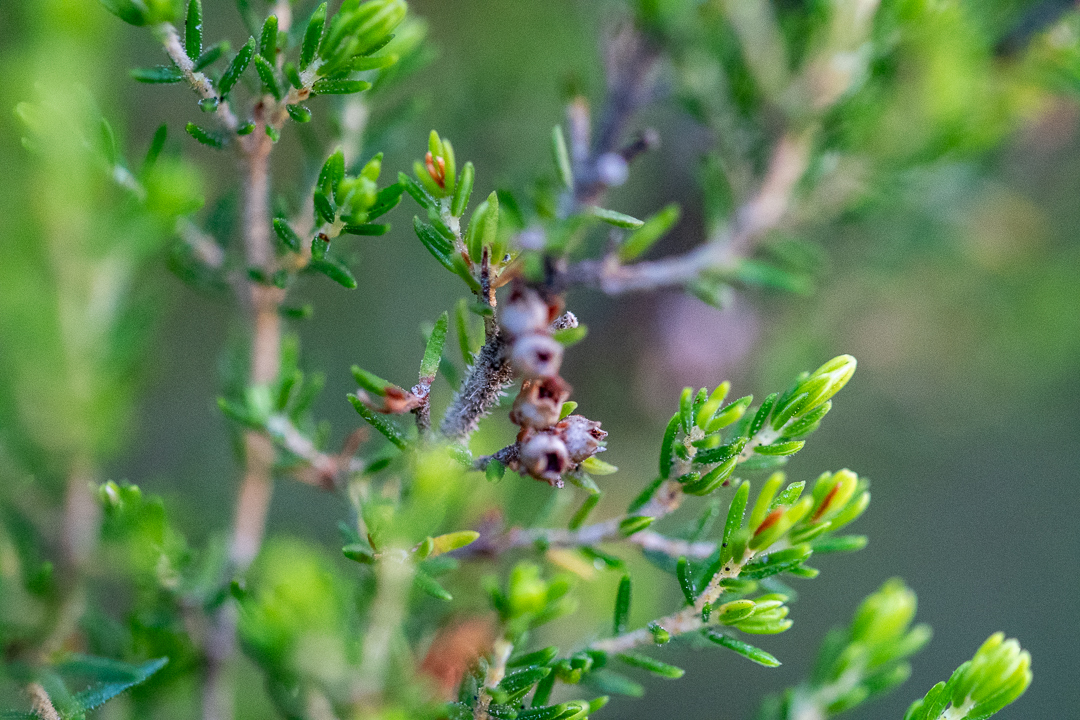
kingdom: Plantae
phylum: Tracheophyta
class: Magnoliopsida
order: Ericales
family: Ericaceae
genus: Erica
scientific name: Erica pulchella
